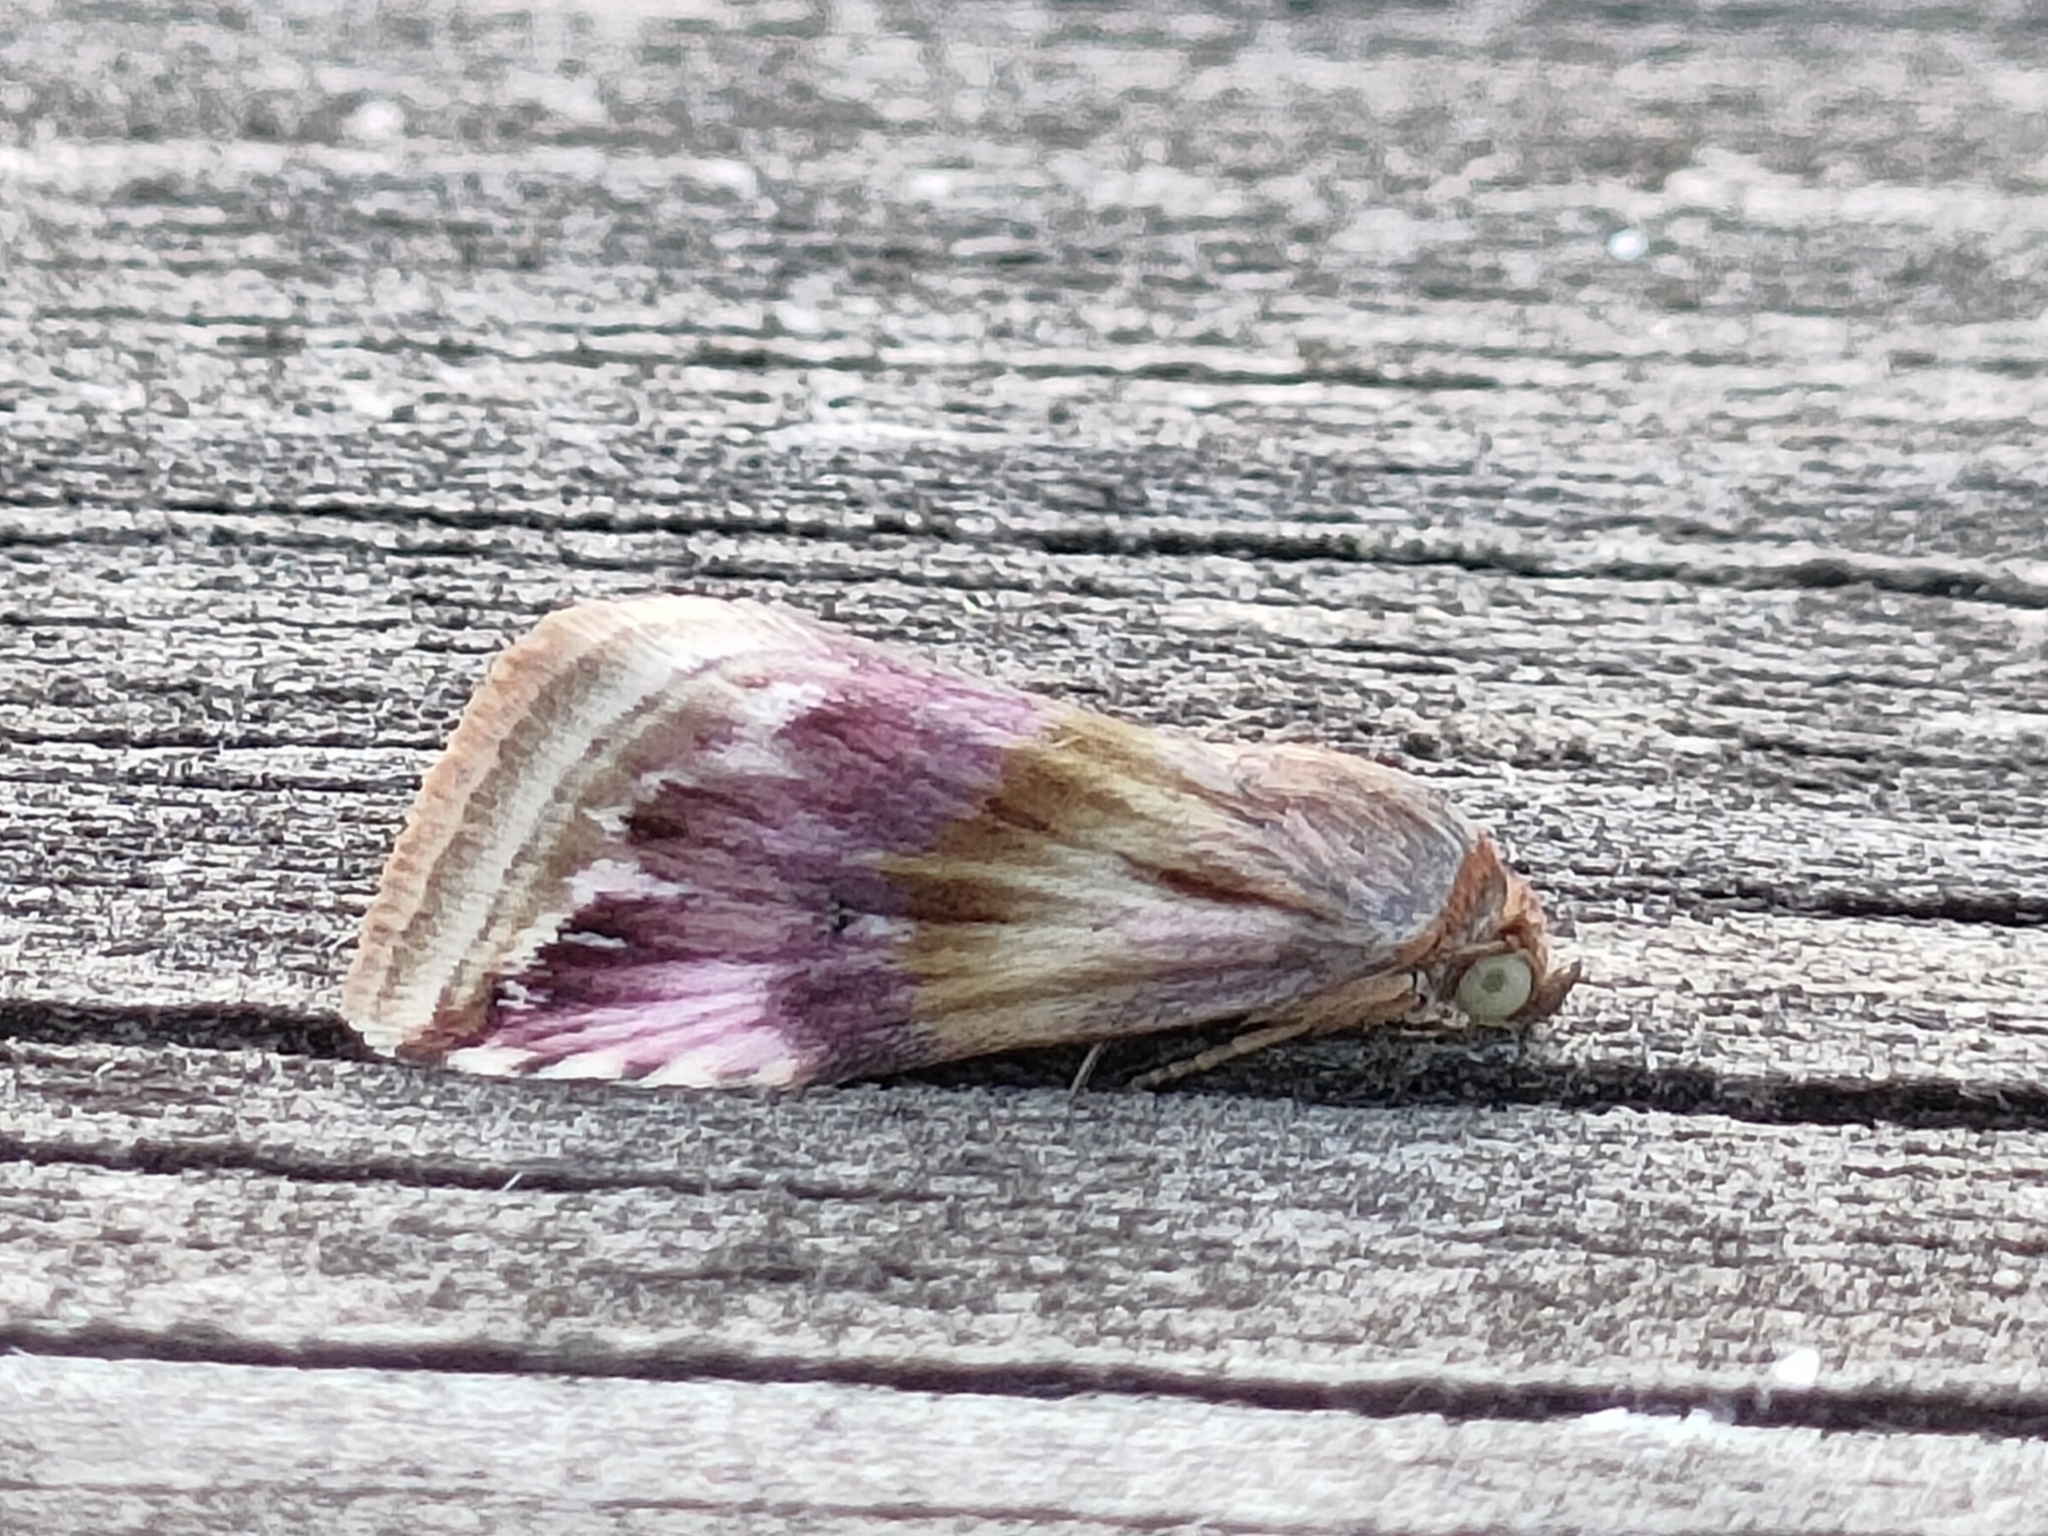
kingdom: Animalia
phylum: Arthropoda
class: Insecta
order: Lepidoptera
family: Noctuidae
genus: Eublemma
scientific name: Eublemma ostrina
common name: Purple marbled
